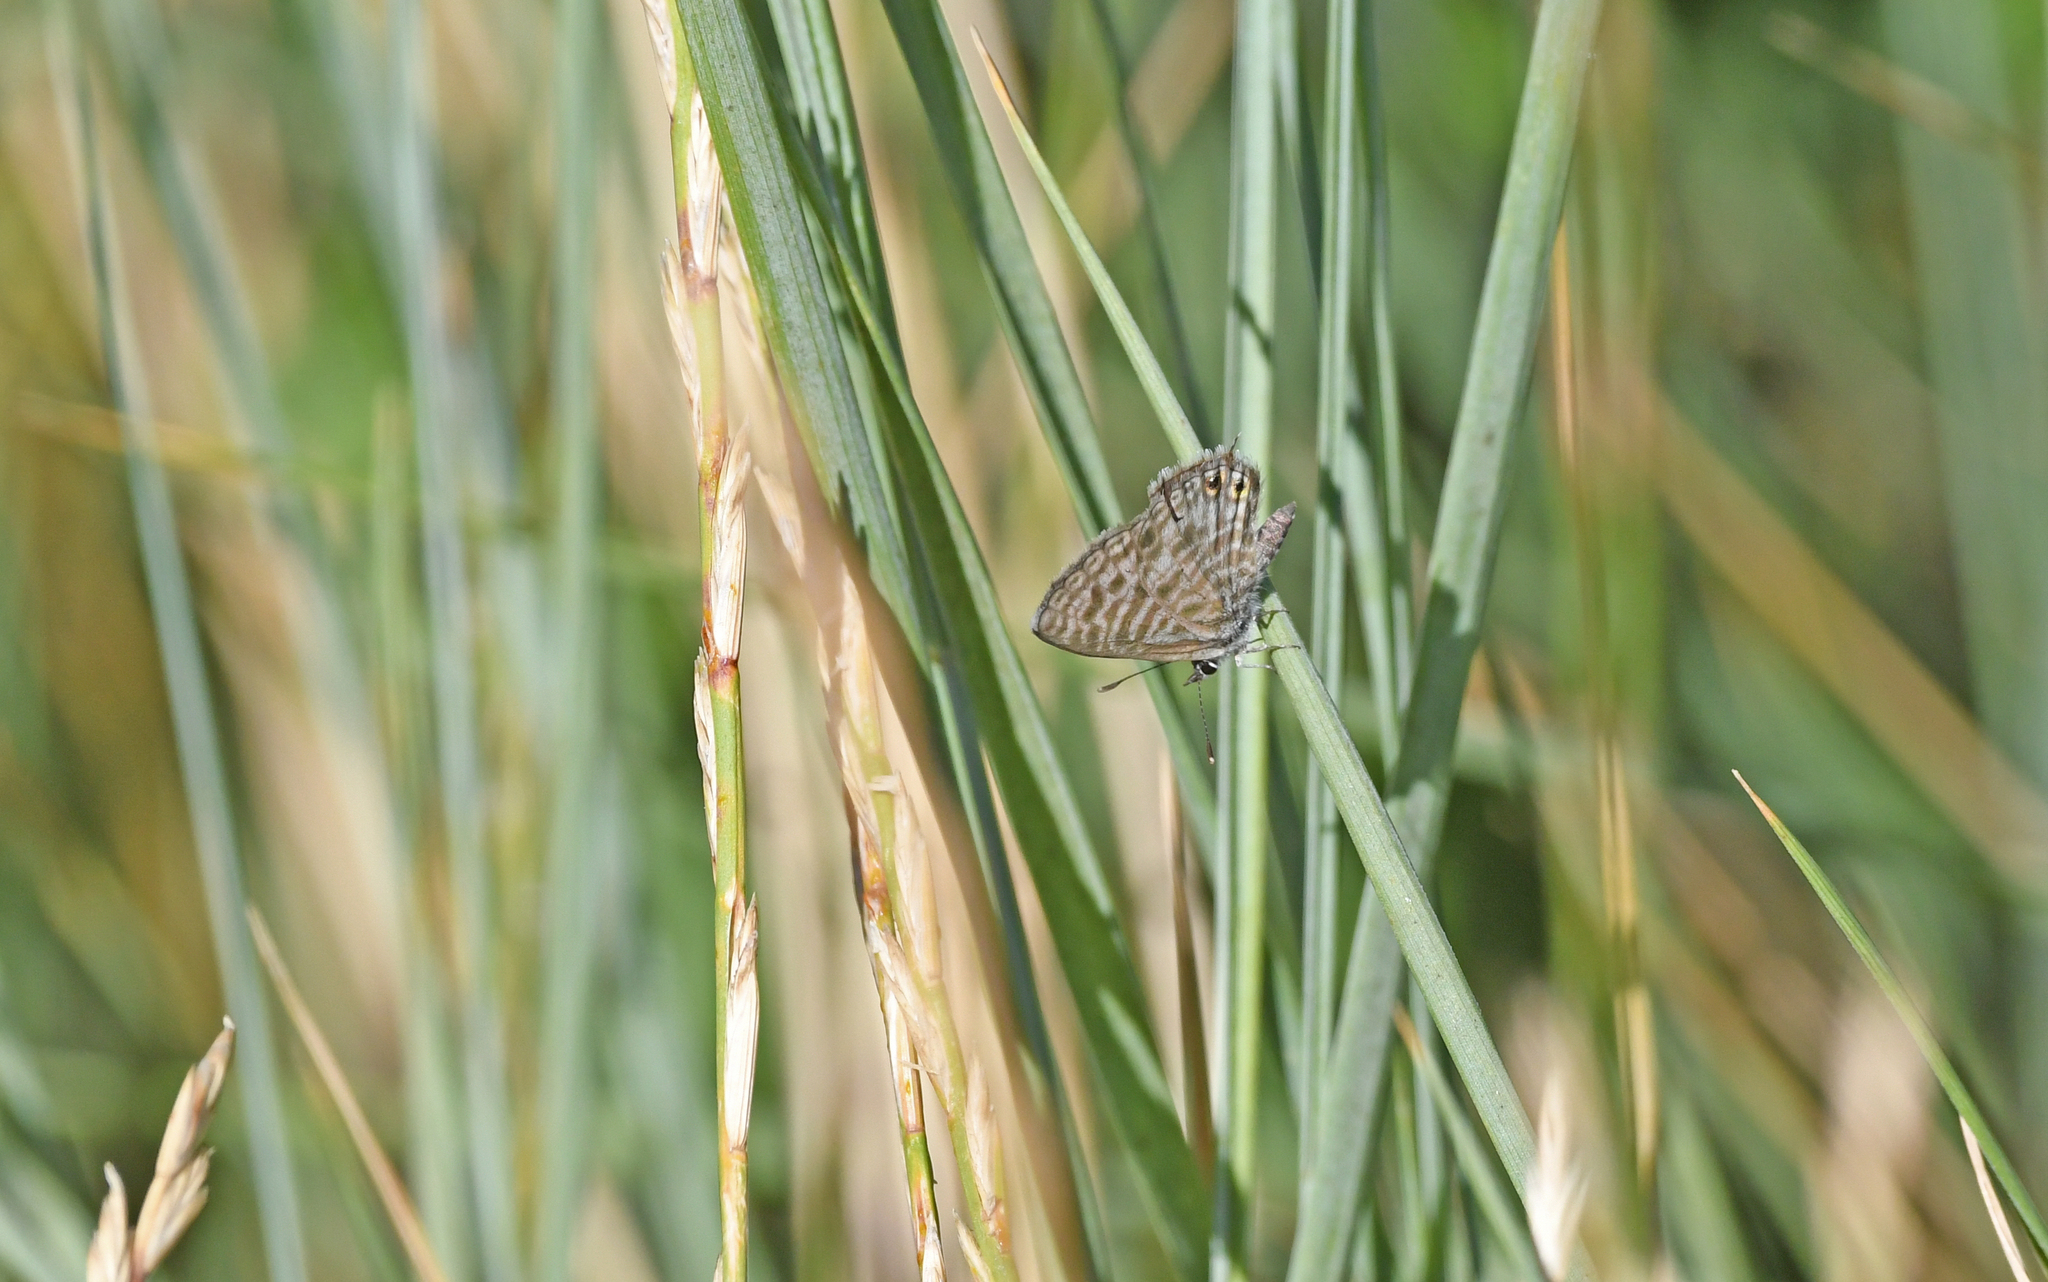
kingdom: Animalia
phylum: Arthropoda
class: Insecta
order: Lepidoptera
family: Lycaenidae
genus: Leptotes
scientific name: Leptotes pirithous
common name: Lang's short-tailed blue
